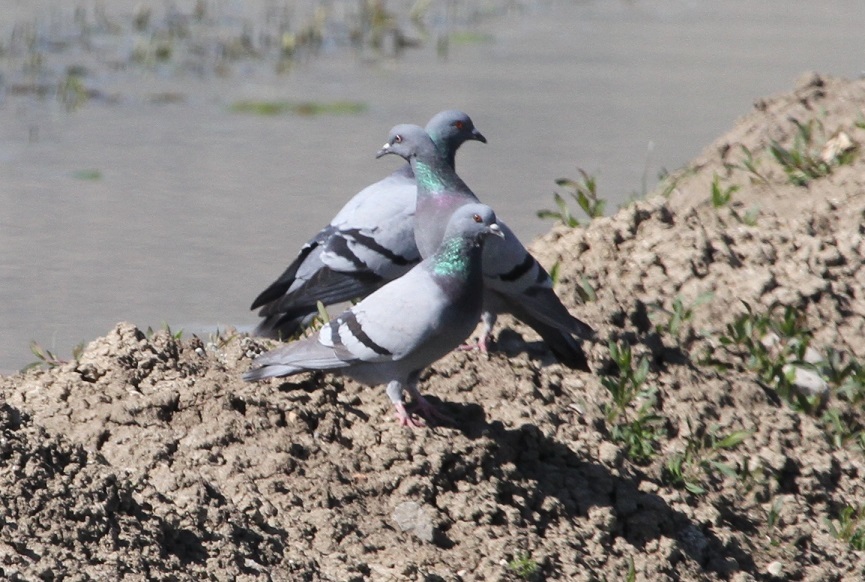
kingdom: Animalia
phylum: Chordata
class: Aves
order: Columbiformes
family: Columbidae
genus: Columba
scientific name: Columba livia
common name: Rock pigeon
